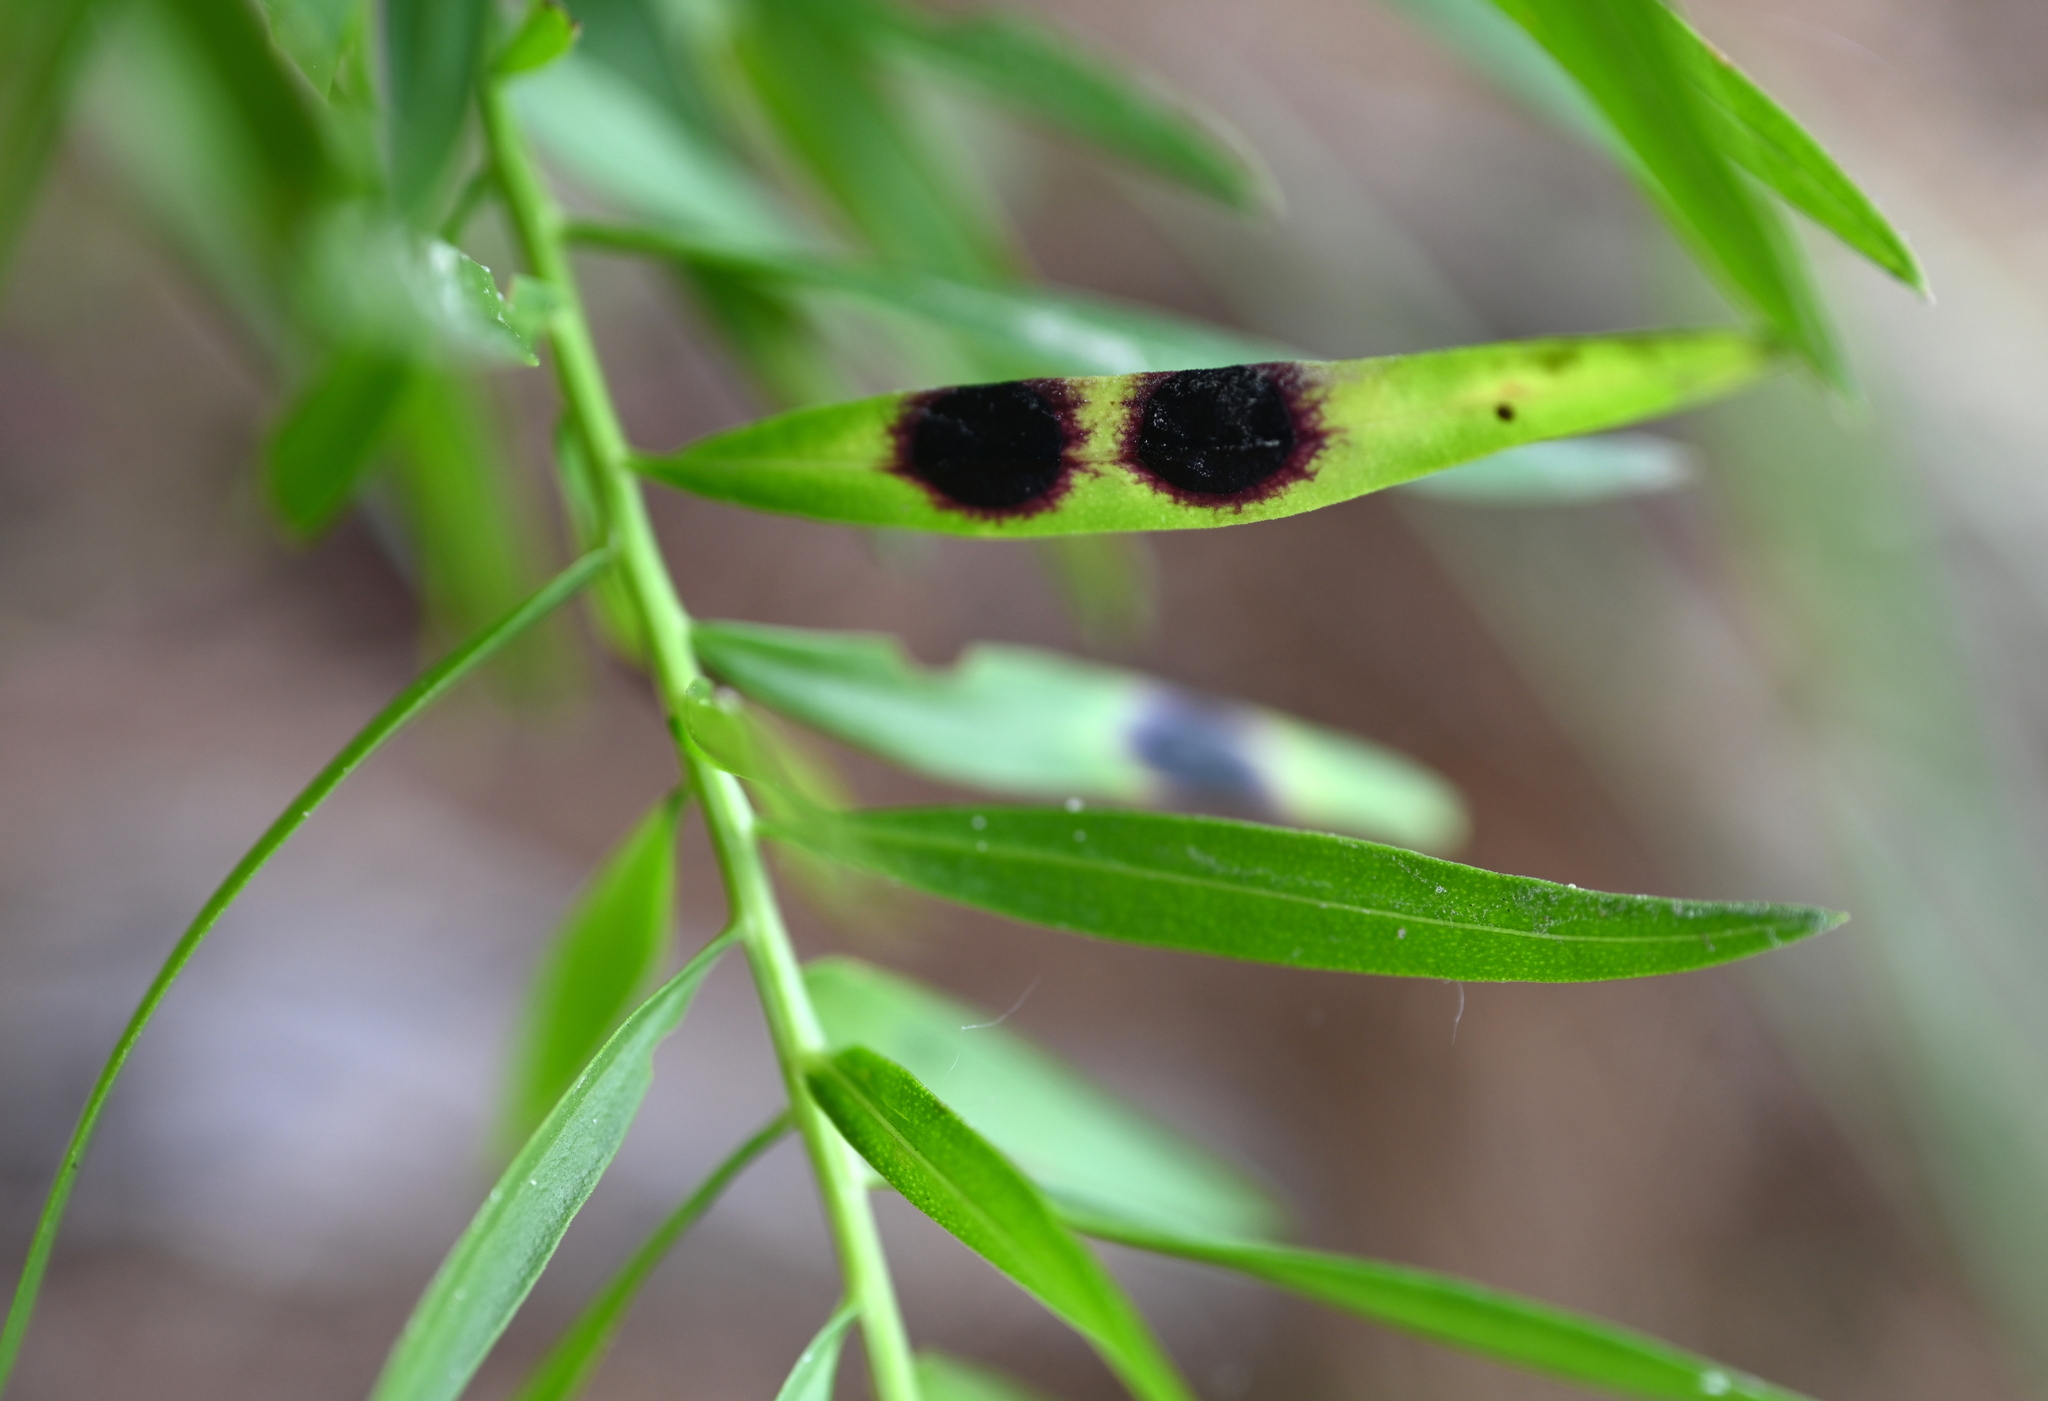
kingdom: Animalia
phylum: Arthropoda
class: Insecta
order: Diptera
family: Cecidomyiidae
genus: Asteromyia
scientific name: Asteromyia euthamiae
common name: Euthamia leaf gall midge
